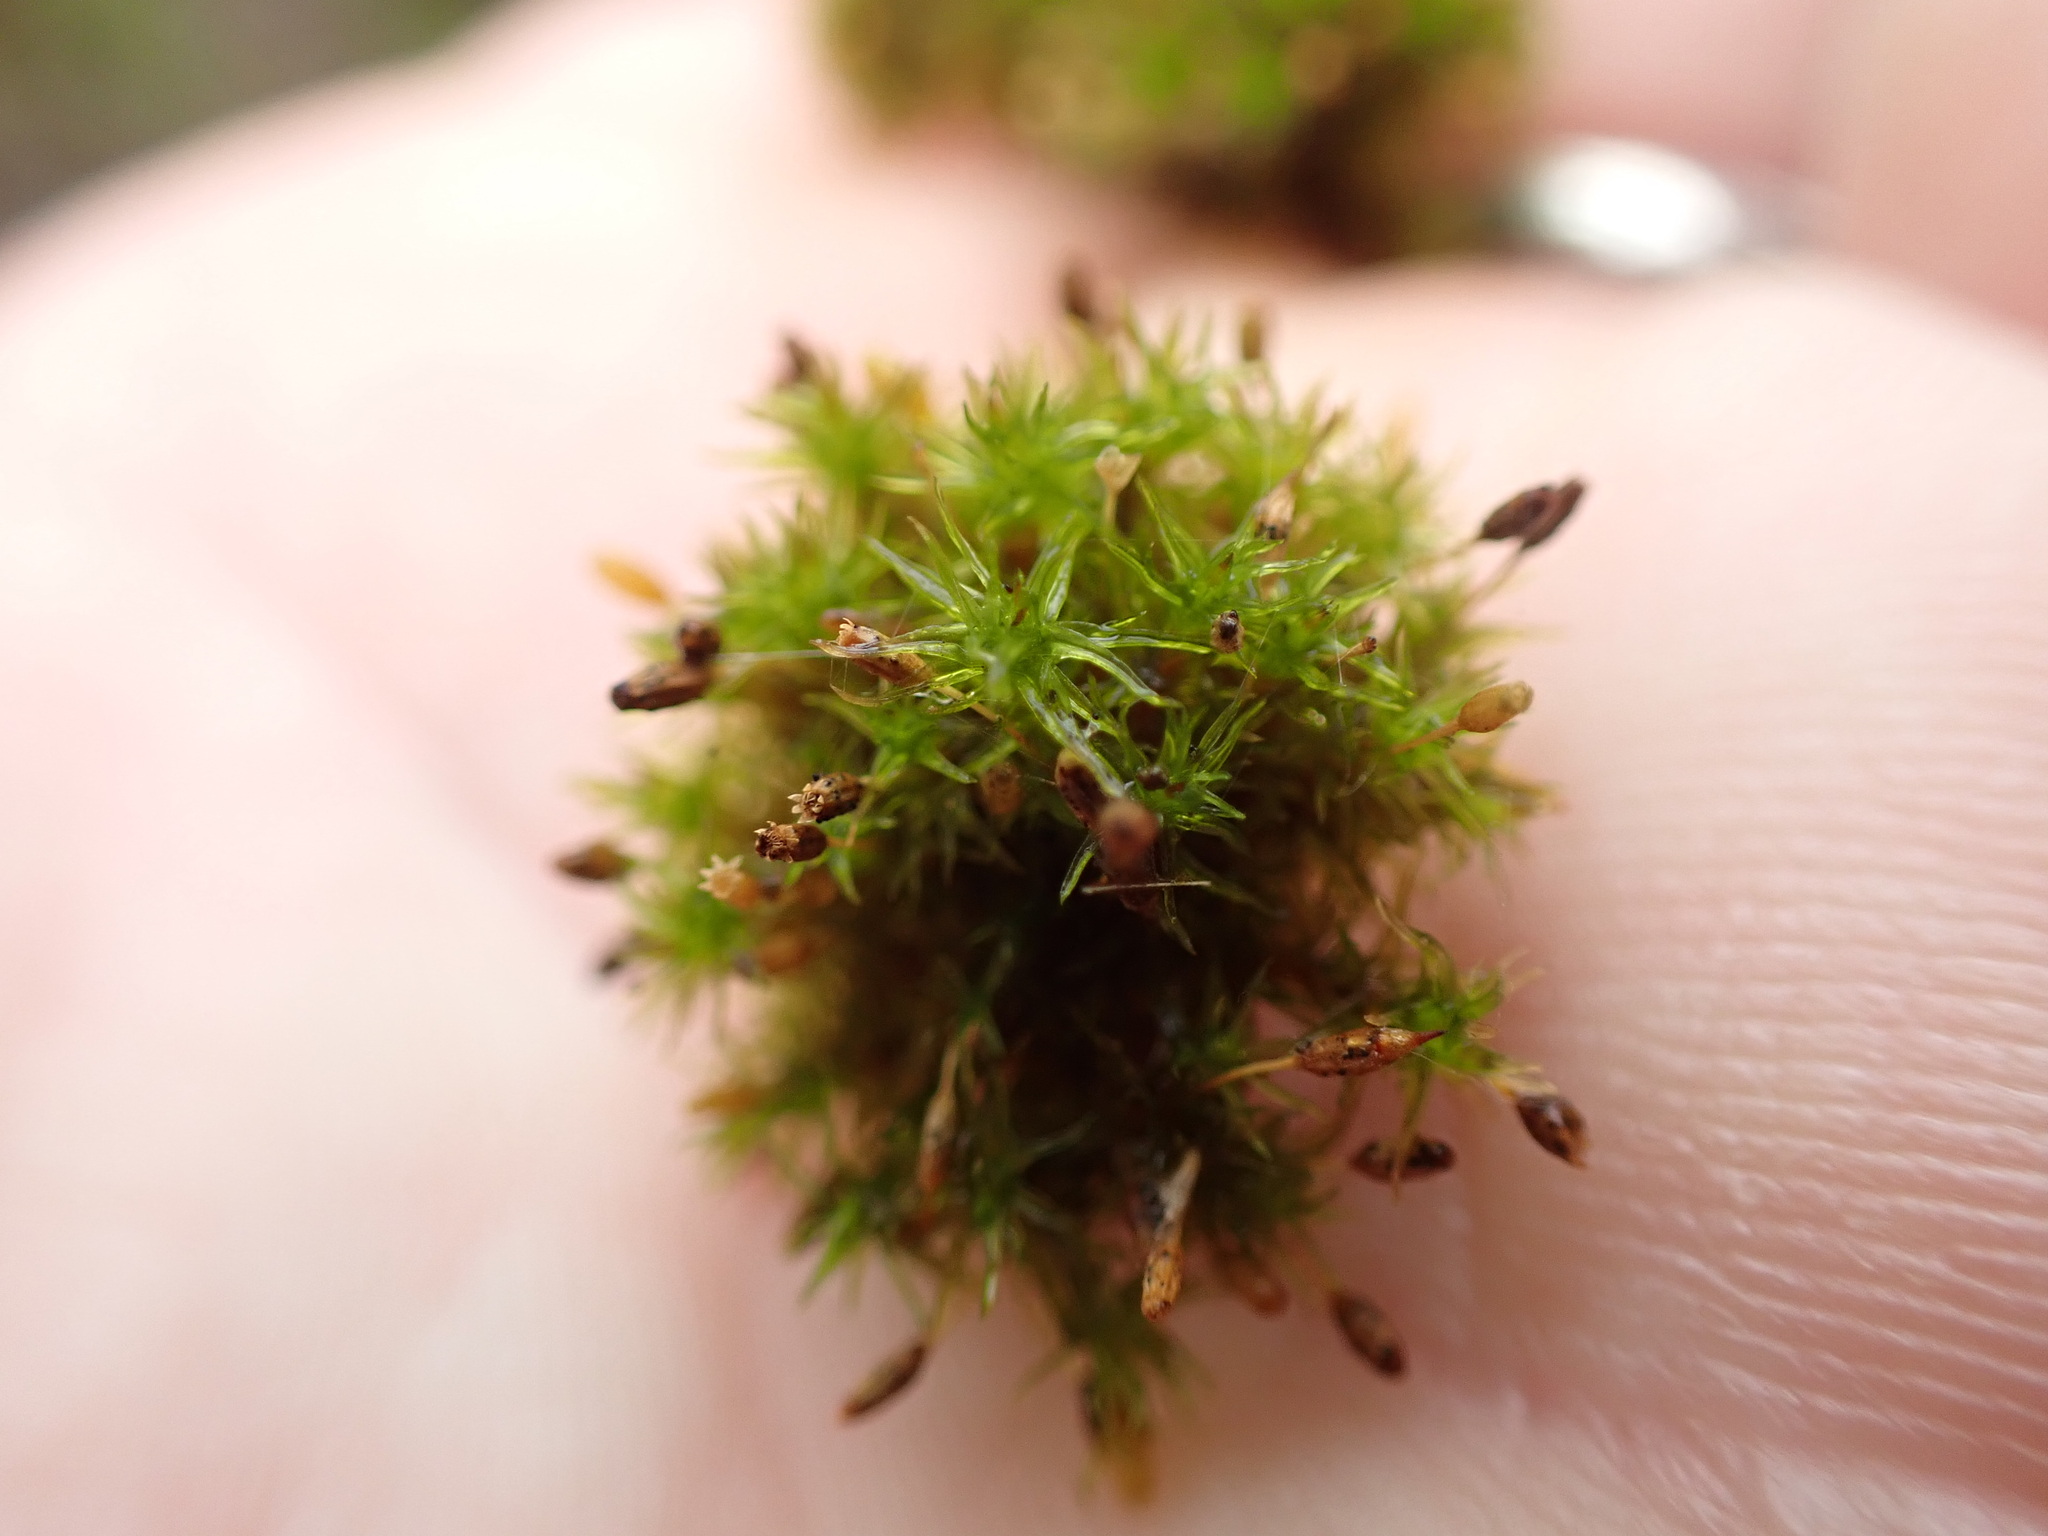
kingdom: Plantae
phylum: Bryophyta
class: Bryopsida
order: Orthotrichales
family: Orthotrichaceae
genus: Orthotrichum
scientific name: Orthotrichum columbicum
